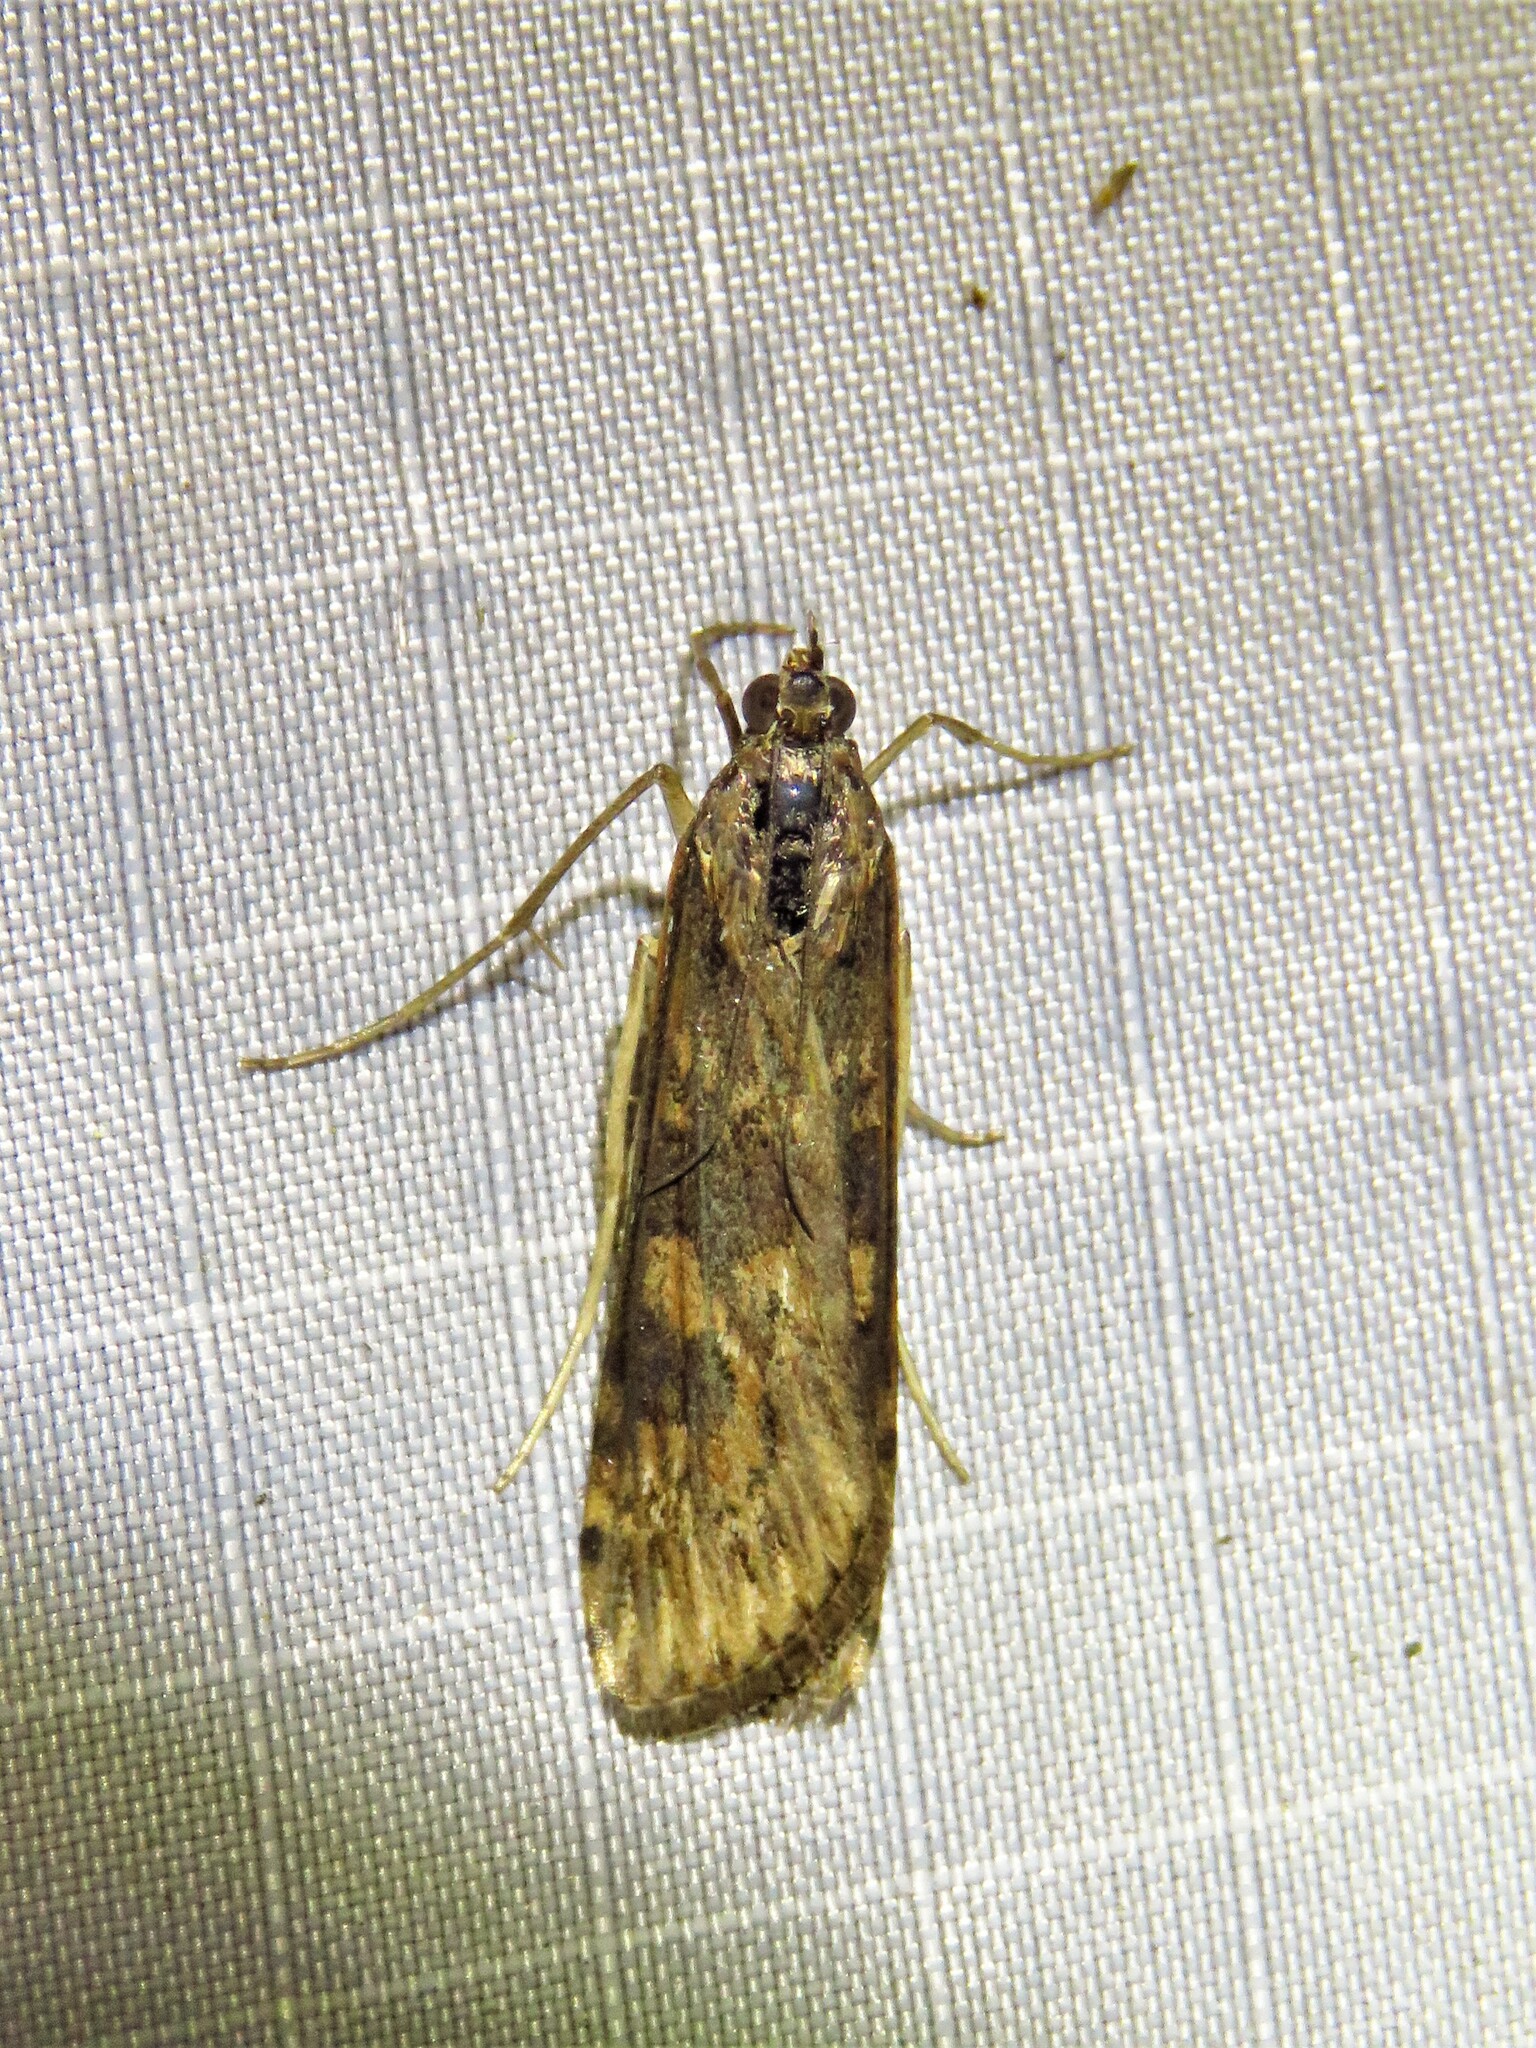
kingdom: Animalia
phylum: Arthropoda
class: Insecta
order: Lepidoptera
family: Crambidae
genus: Nomophila
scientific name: Nomophila nearctica
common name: American rush veneer
